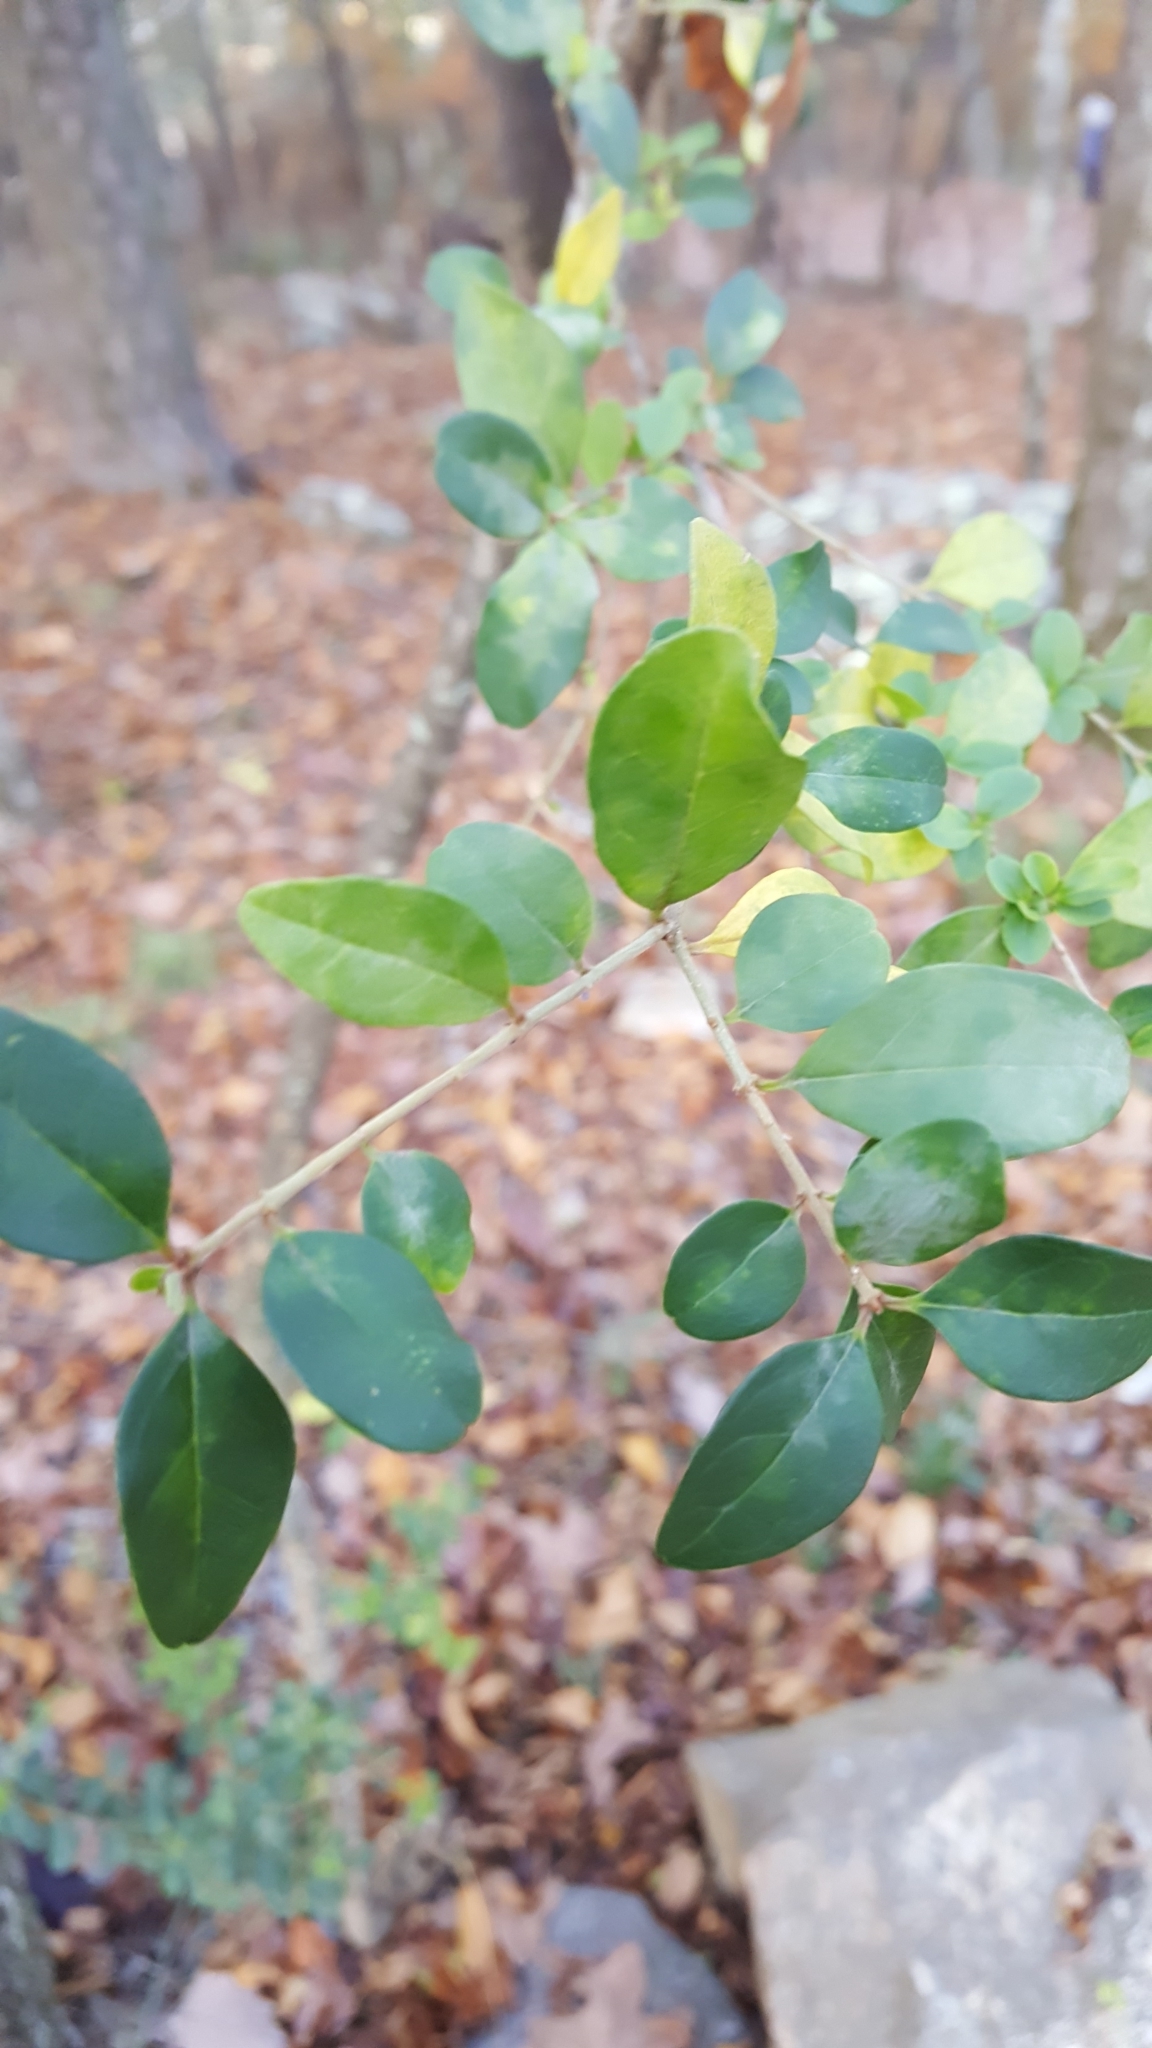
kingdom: Plantae
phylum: Tracheophyta
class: Magnoliopsida
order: Lamiales
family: Oleaceae
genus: Ligustrum
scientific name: Ligustrum sinense
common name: Chinese privet
